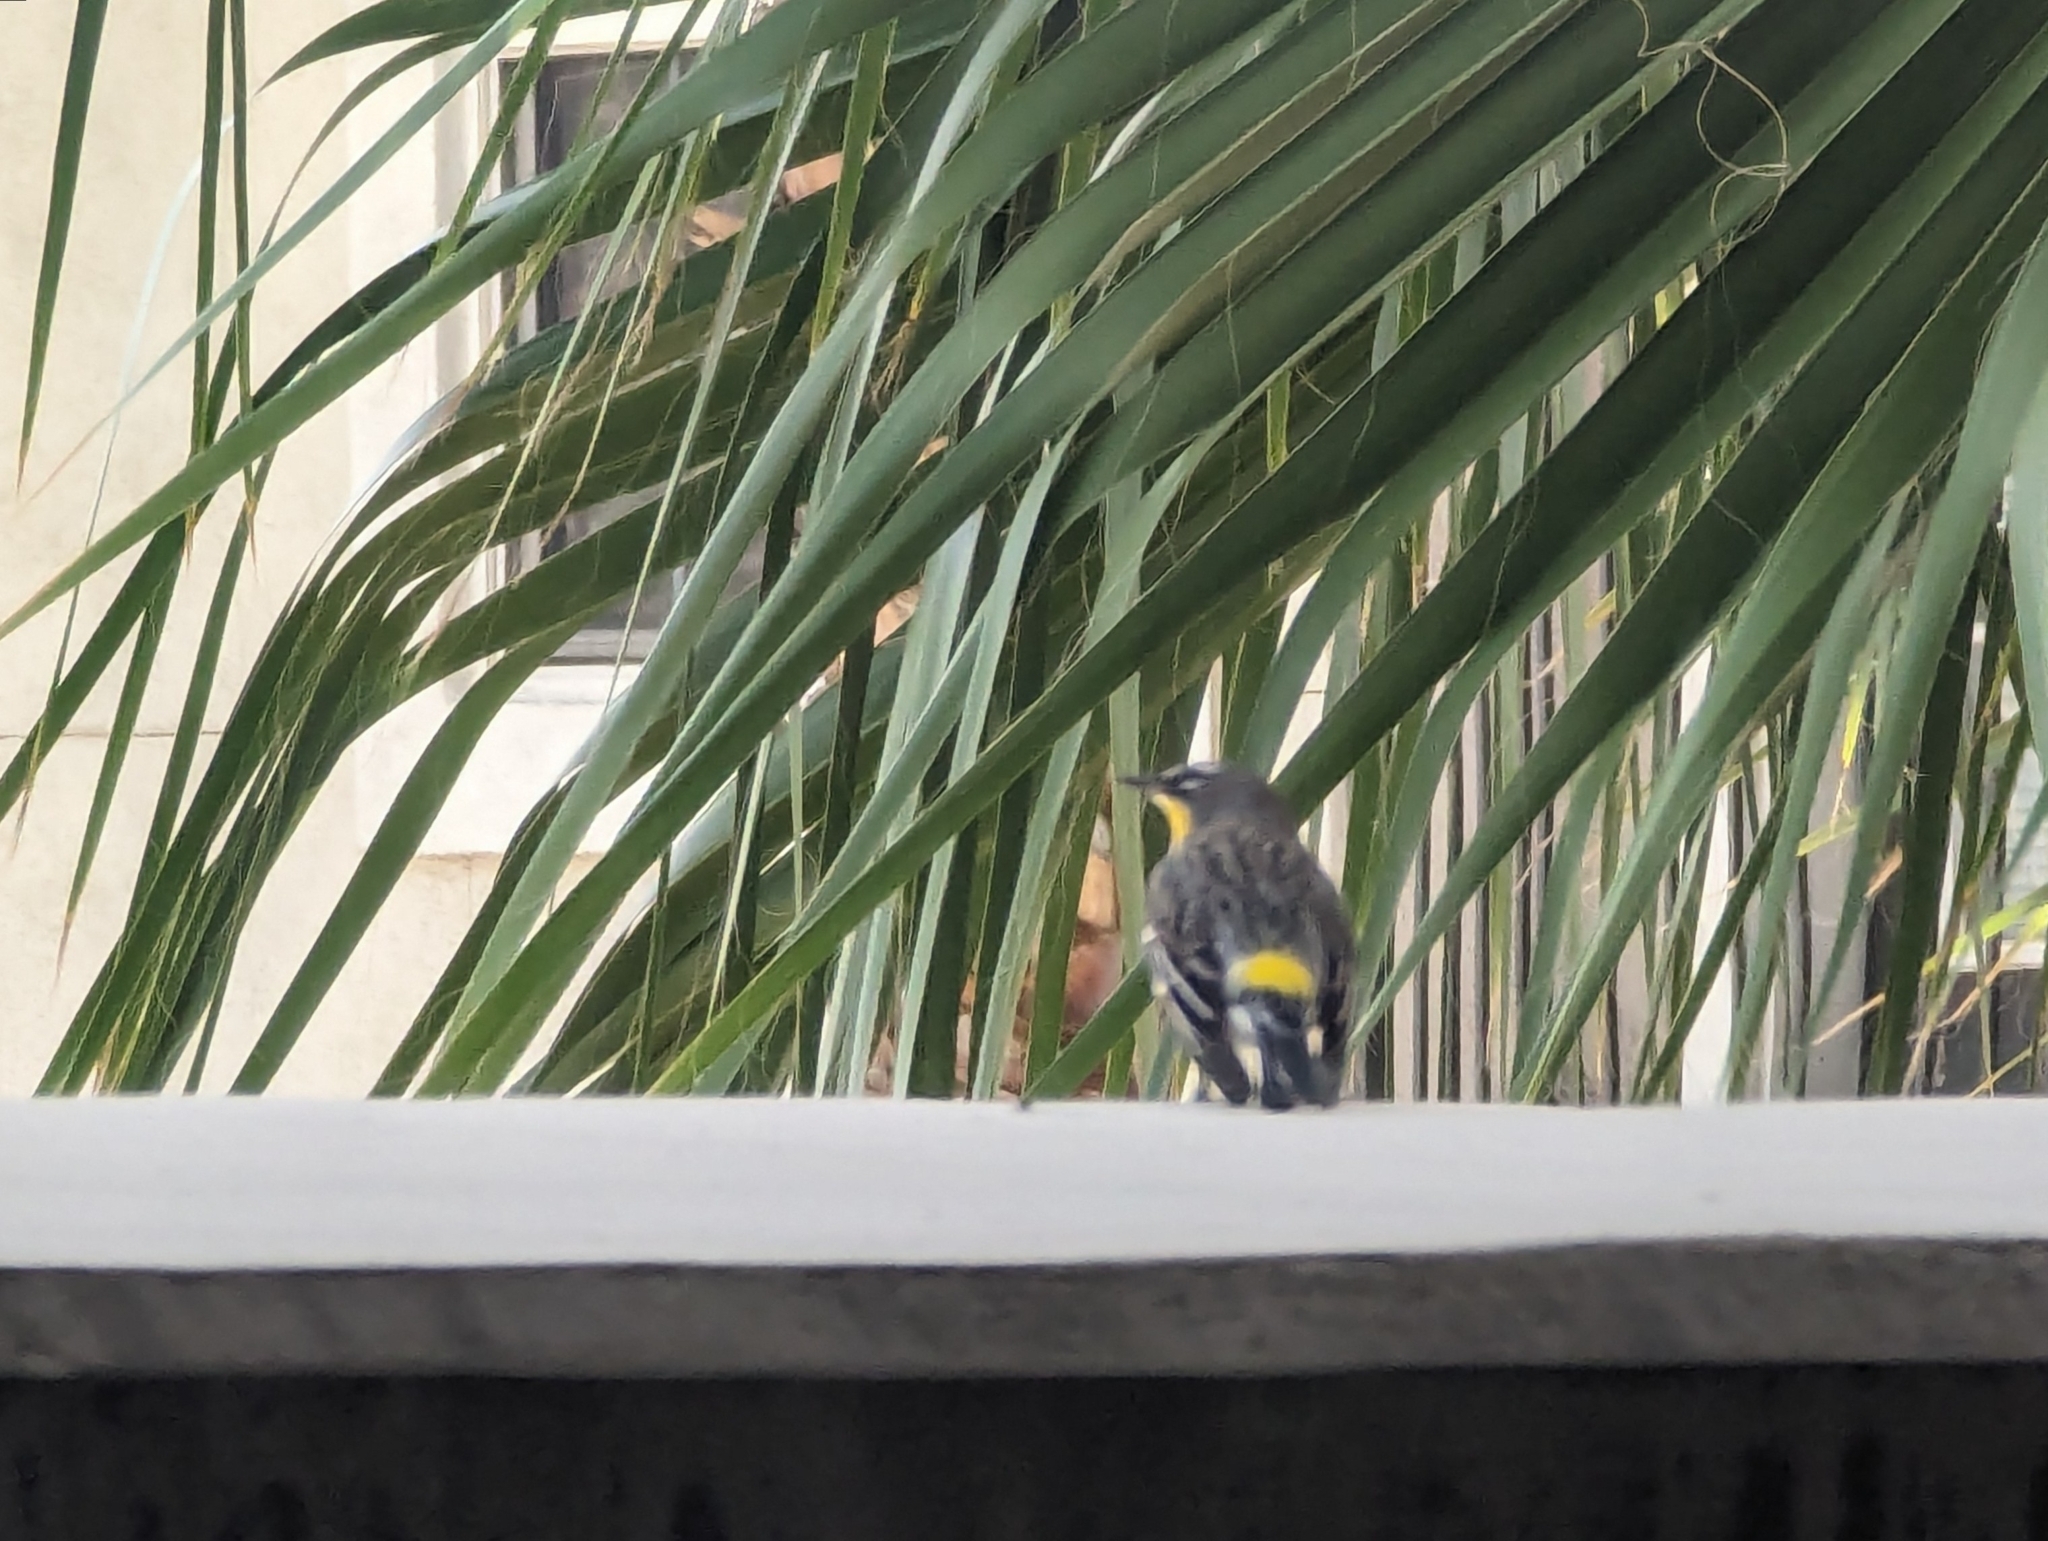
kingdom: Animalia
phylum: Chordata
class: Aves
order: Passeriformes
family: Parulidae
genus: Setophaga
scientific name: Setophaga coronata
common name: Myrtle warbler
